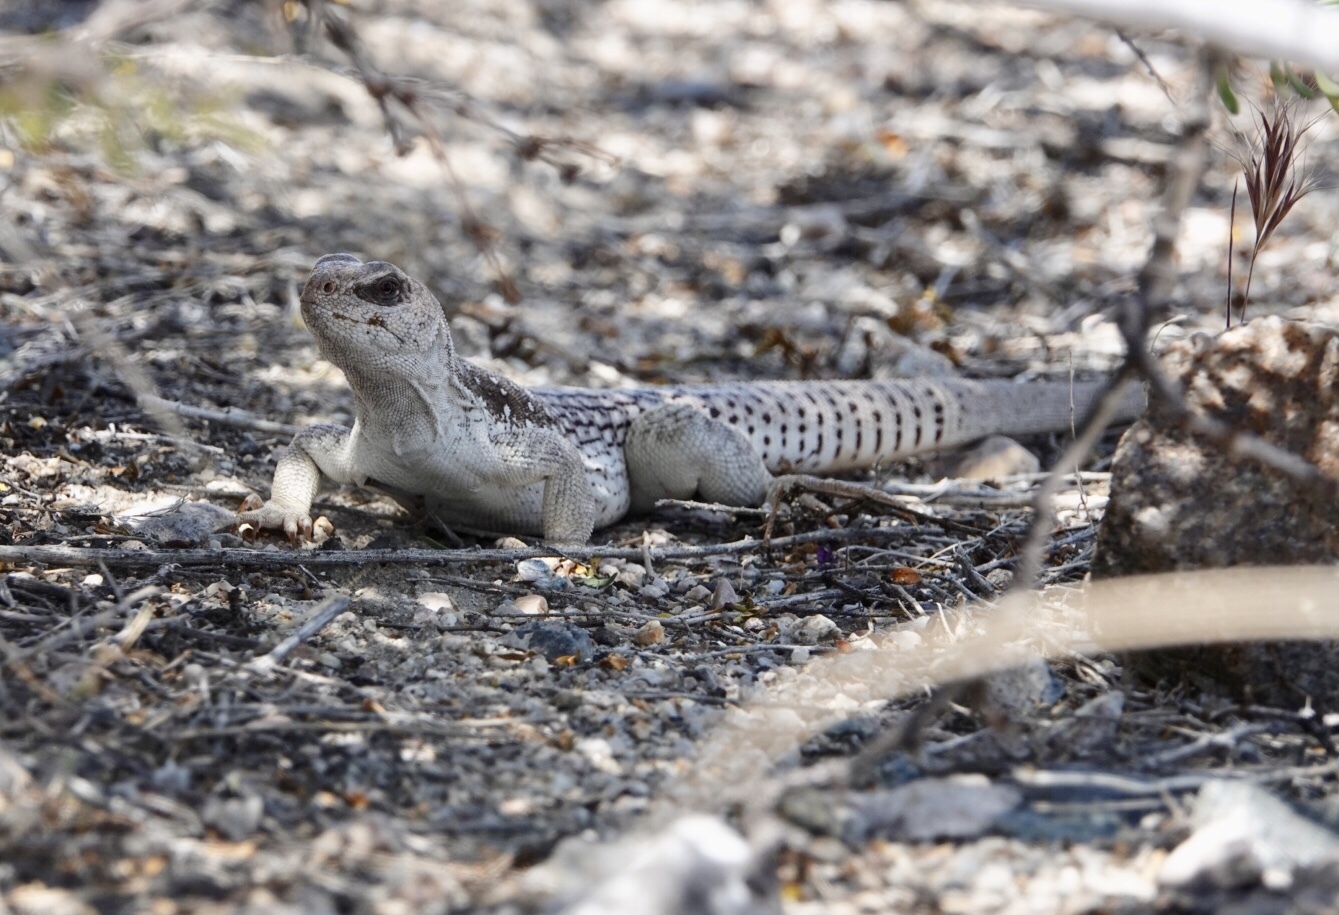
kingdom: Animalia
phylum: Chordata
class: Squamata
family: Iguanidae
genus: Dipsosaurus
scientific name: Dipsosaurus dorsalis
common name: Desert iguana
